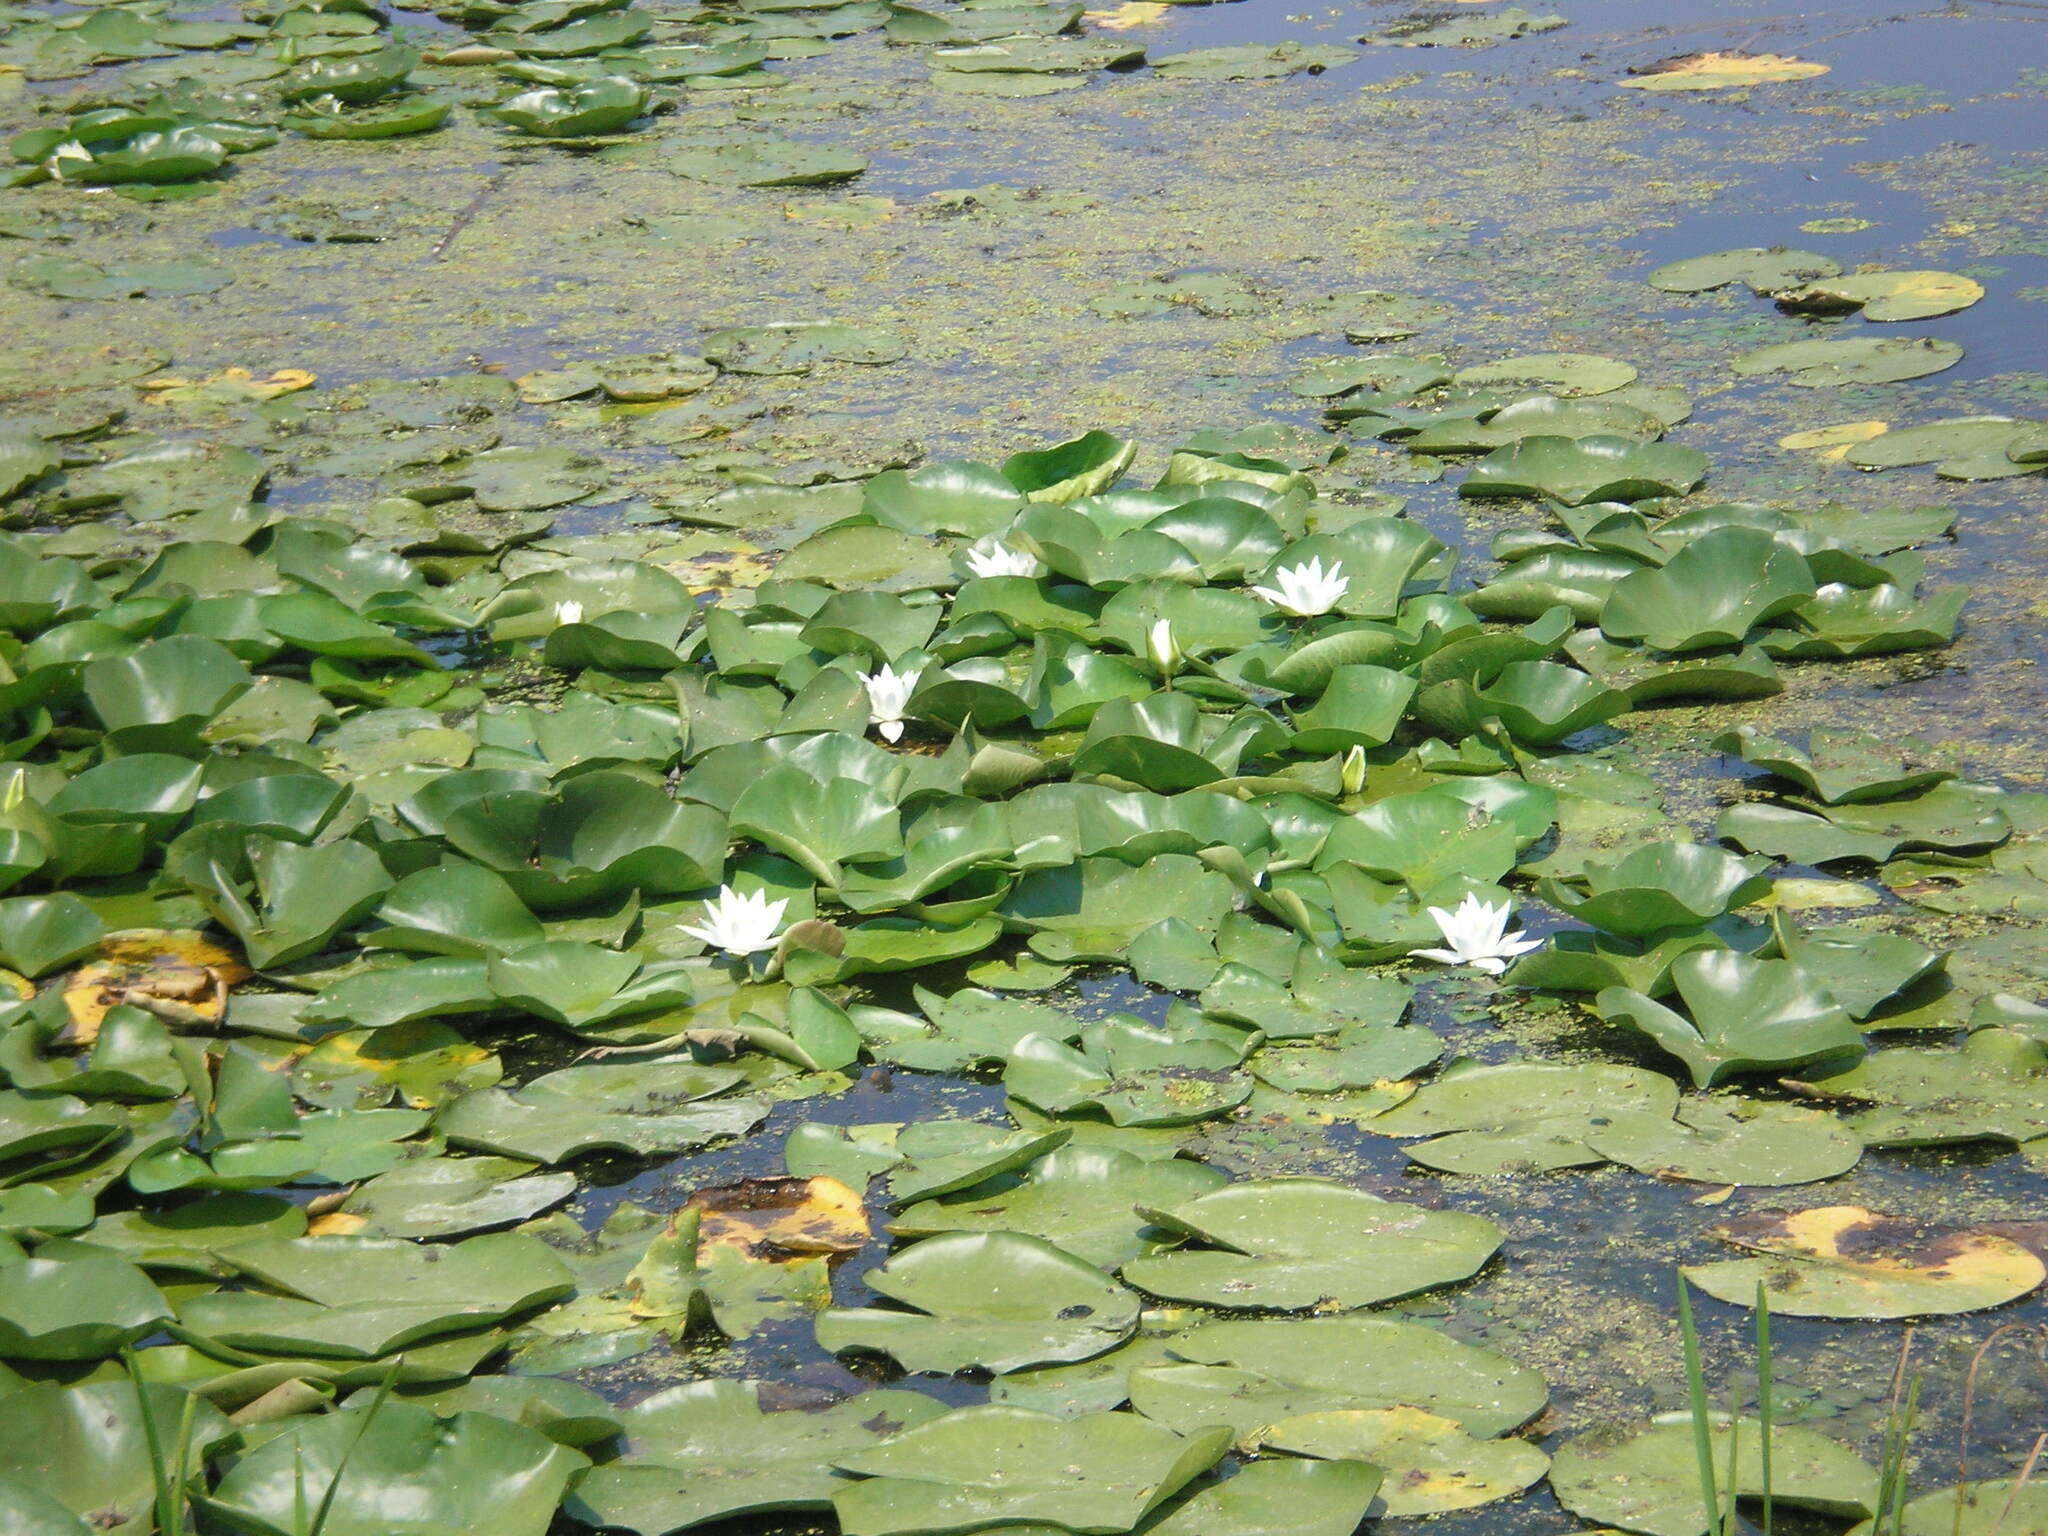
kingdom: Plantae
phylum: Tracheophyta
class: Magnoliopsida
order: Nymphaeales
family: Nymphaeaceae
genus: Nymphaea
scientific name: Nymphaea alba
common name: White water-lily
